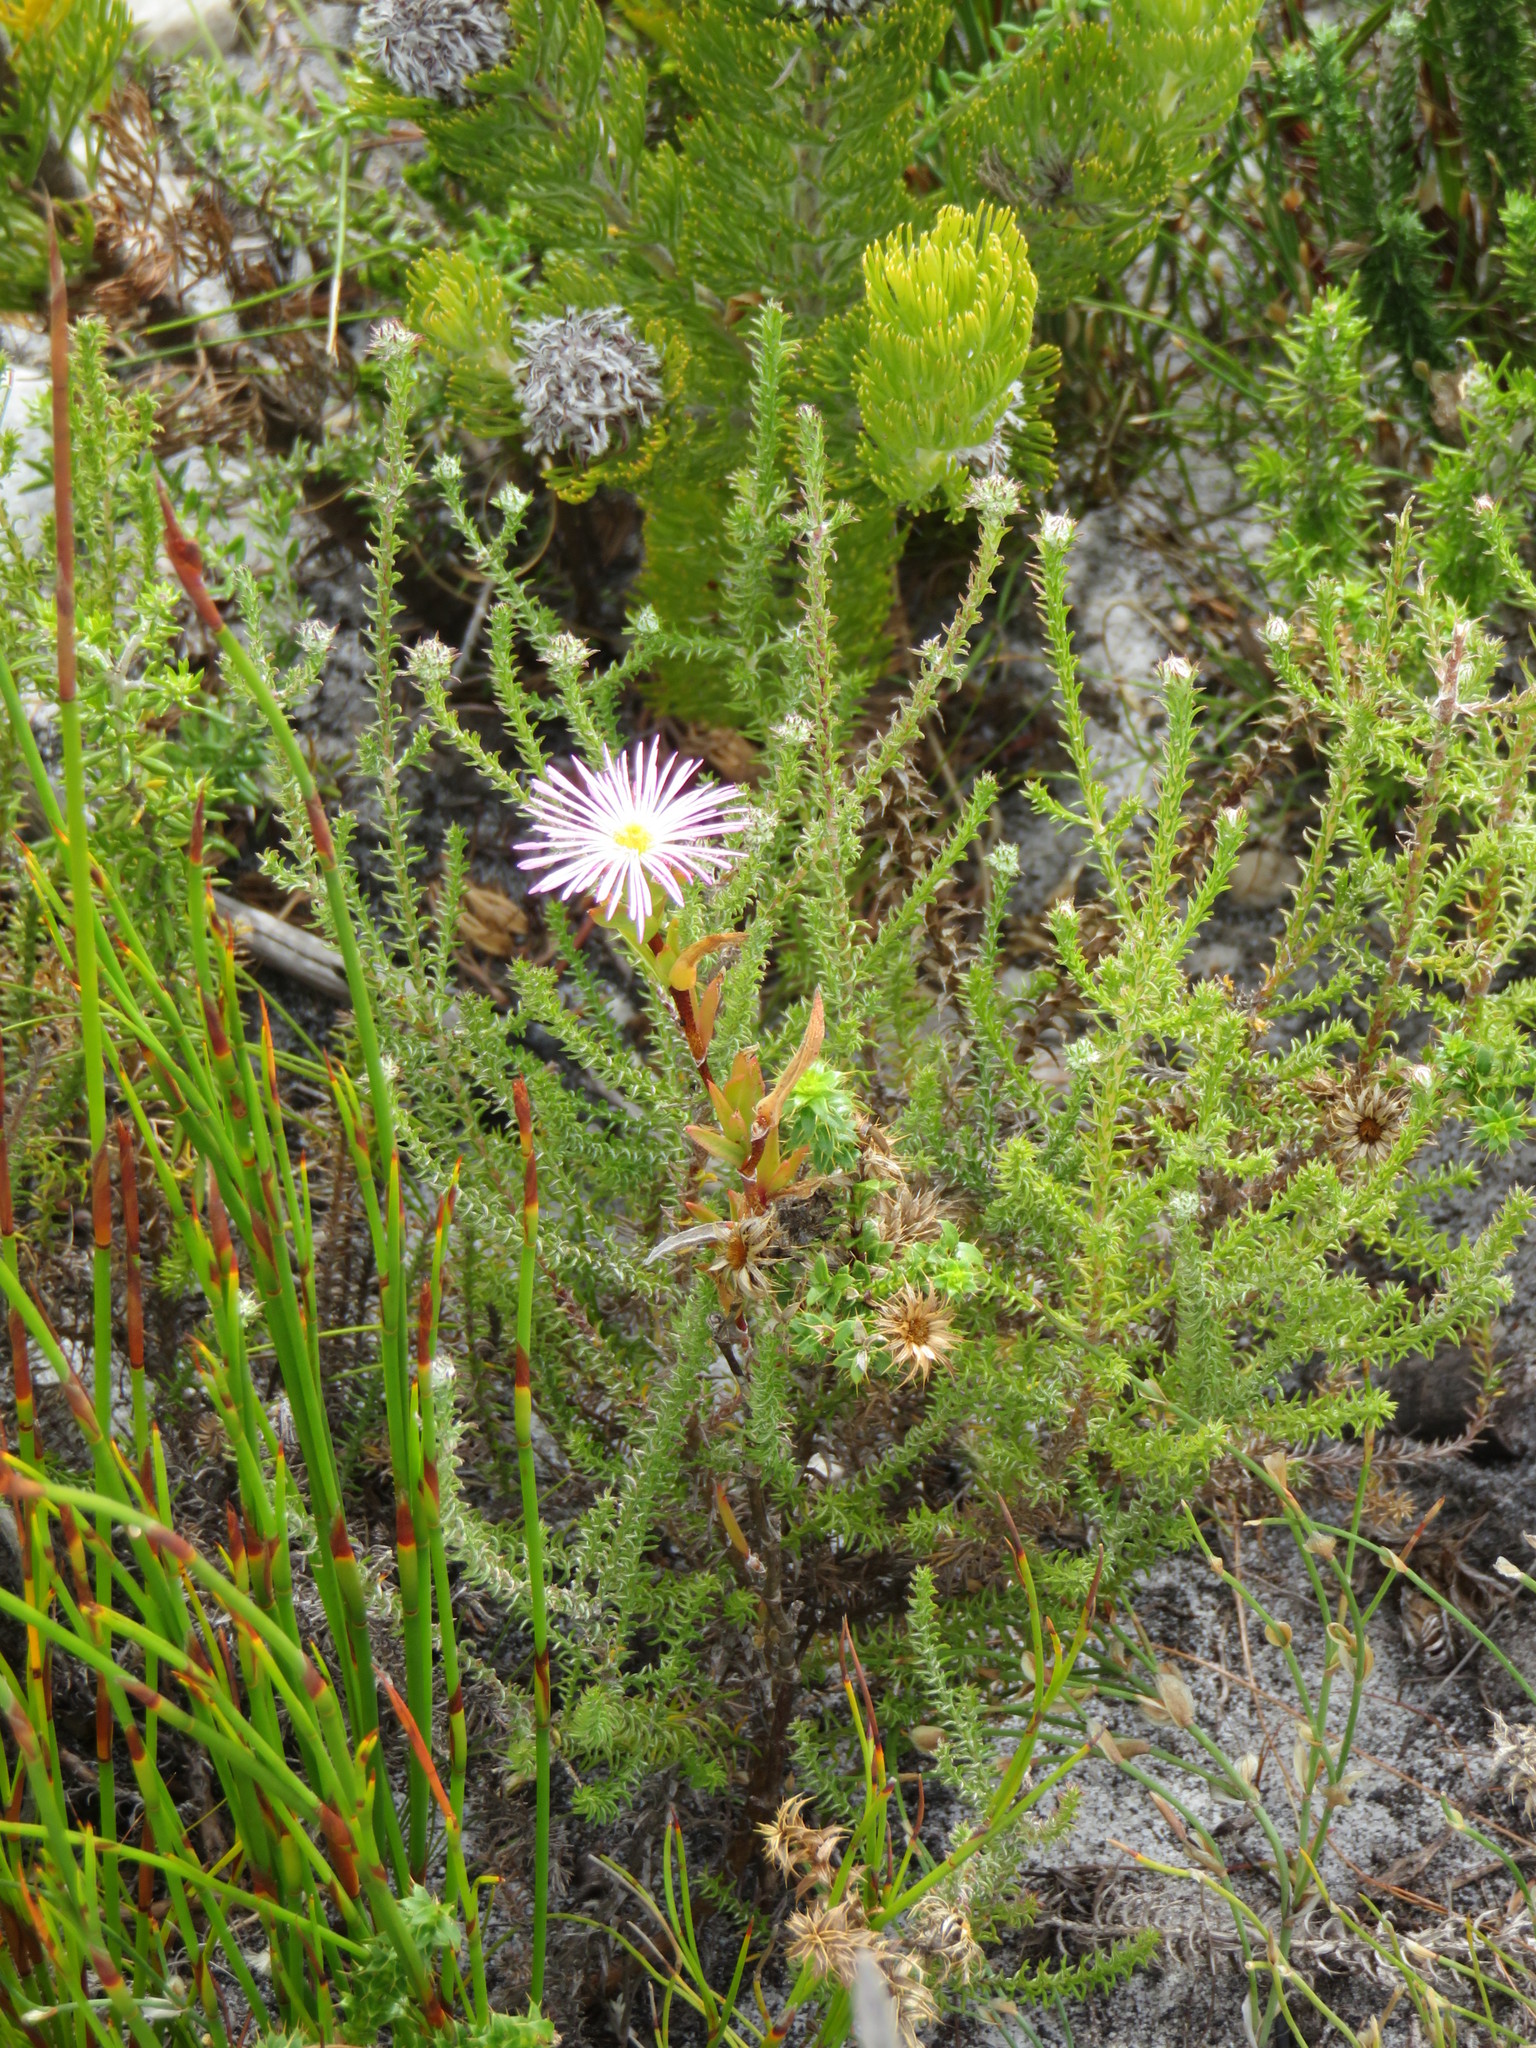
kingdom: Plantae
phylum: Tracheophyta
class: Magnoliopsida
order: Asterales
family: Asteraceae
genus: Cullumia
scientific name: Cullumia setosa
